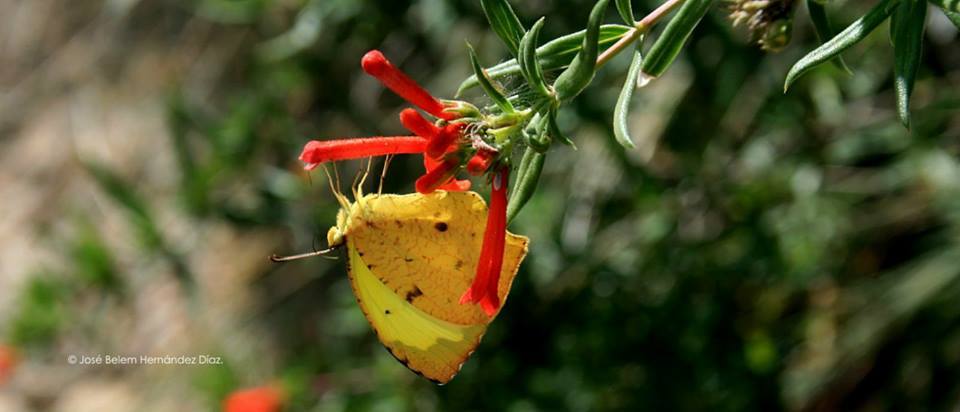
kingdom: Animalia
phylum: Arthropoda
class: Insecta
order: Lepidoptera
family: Pieridae
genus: Abaeis
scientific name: Abaeis salome
